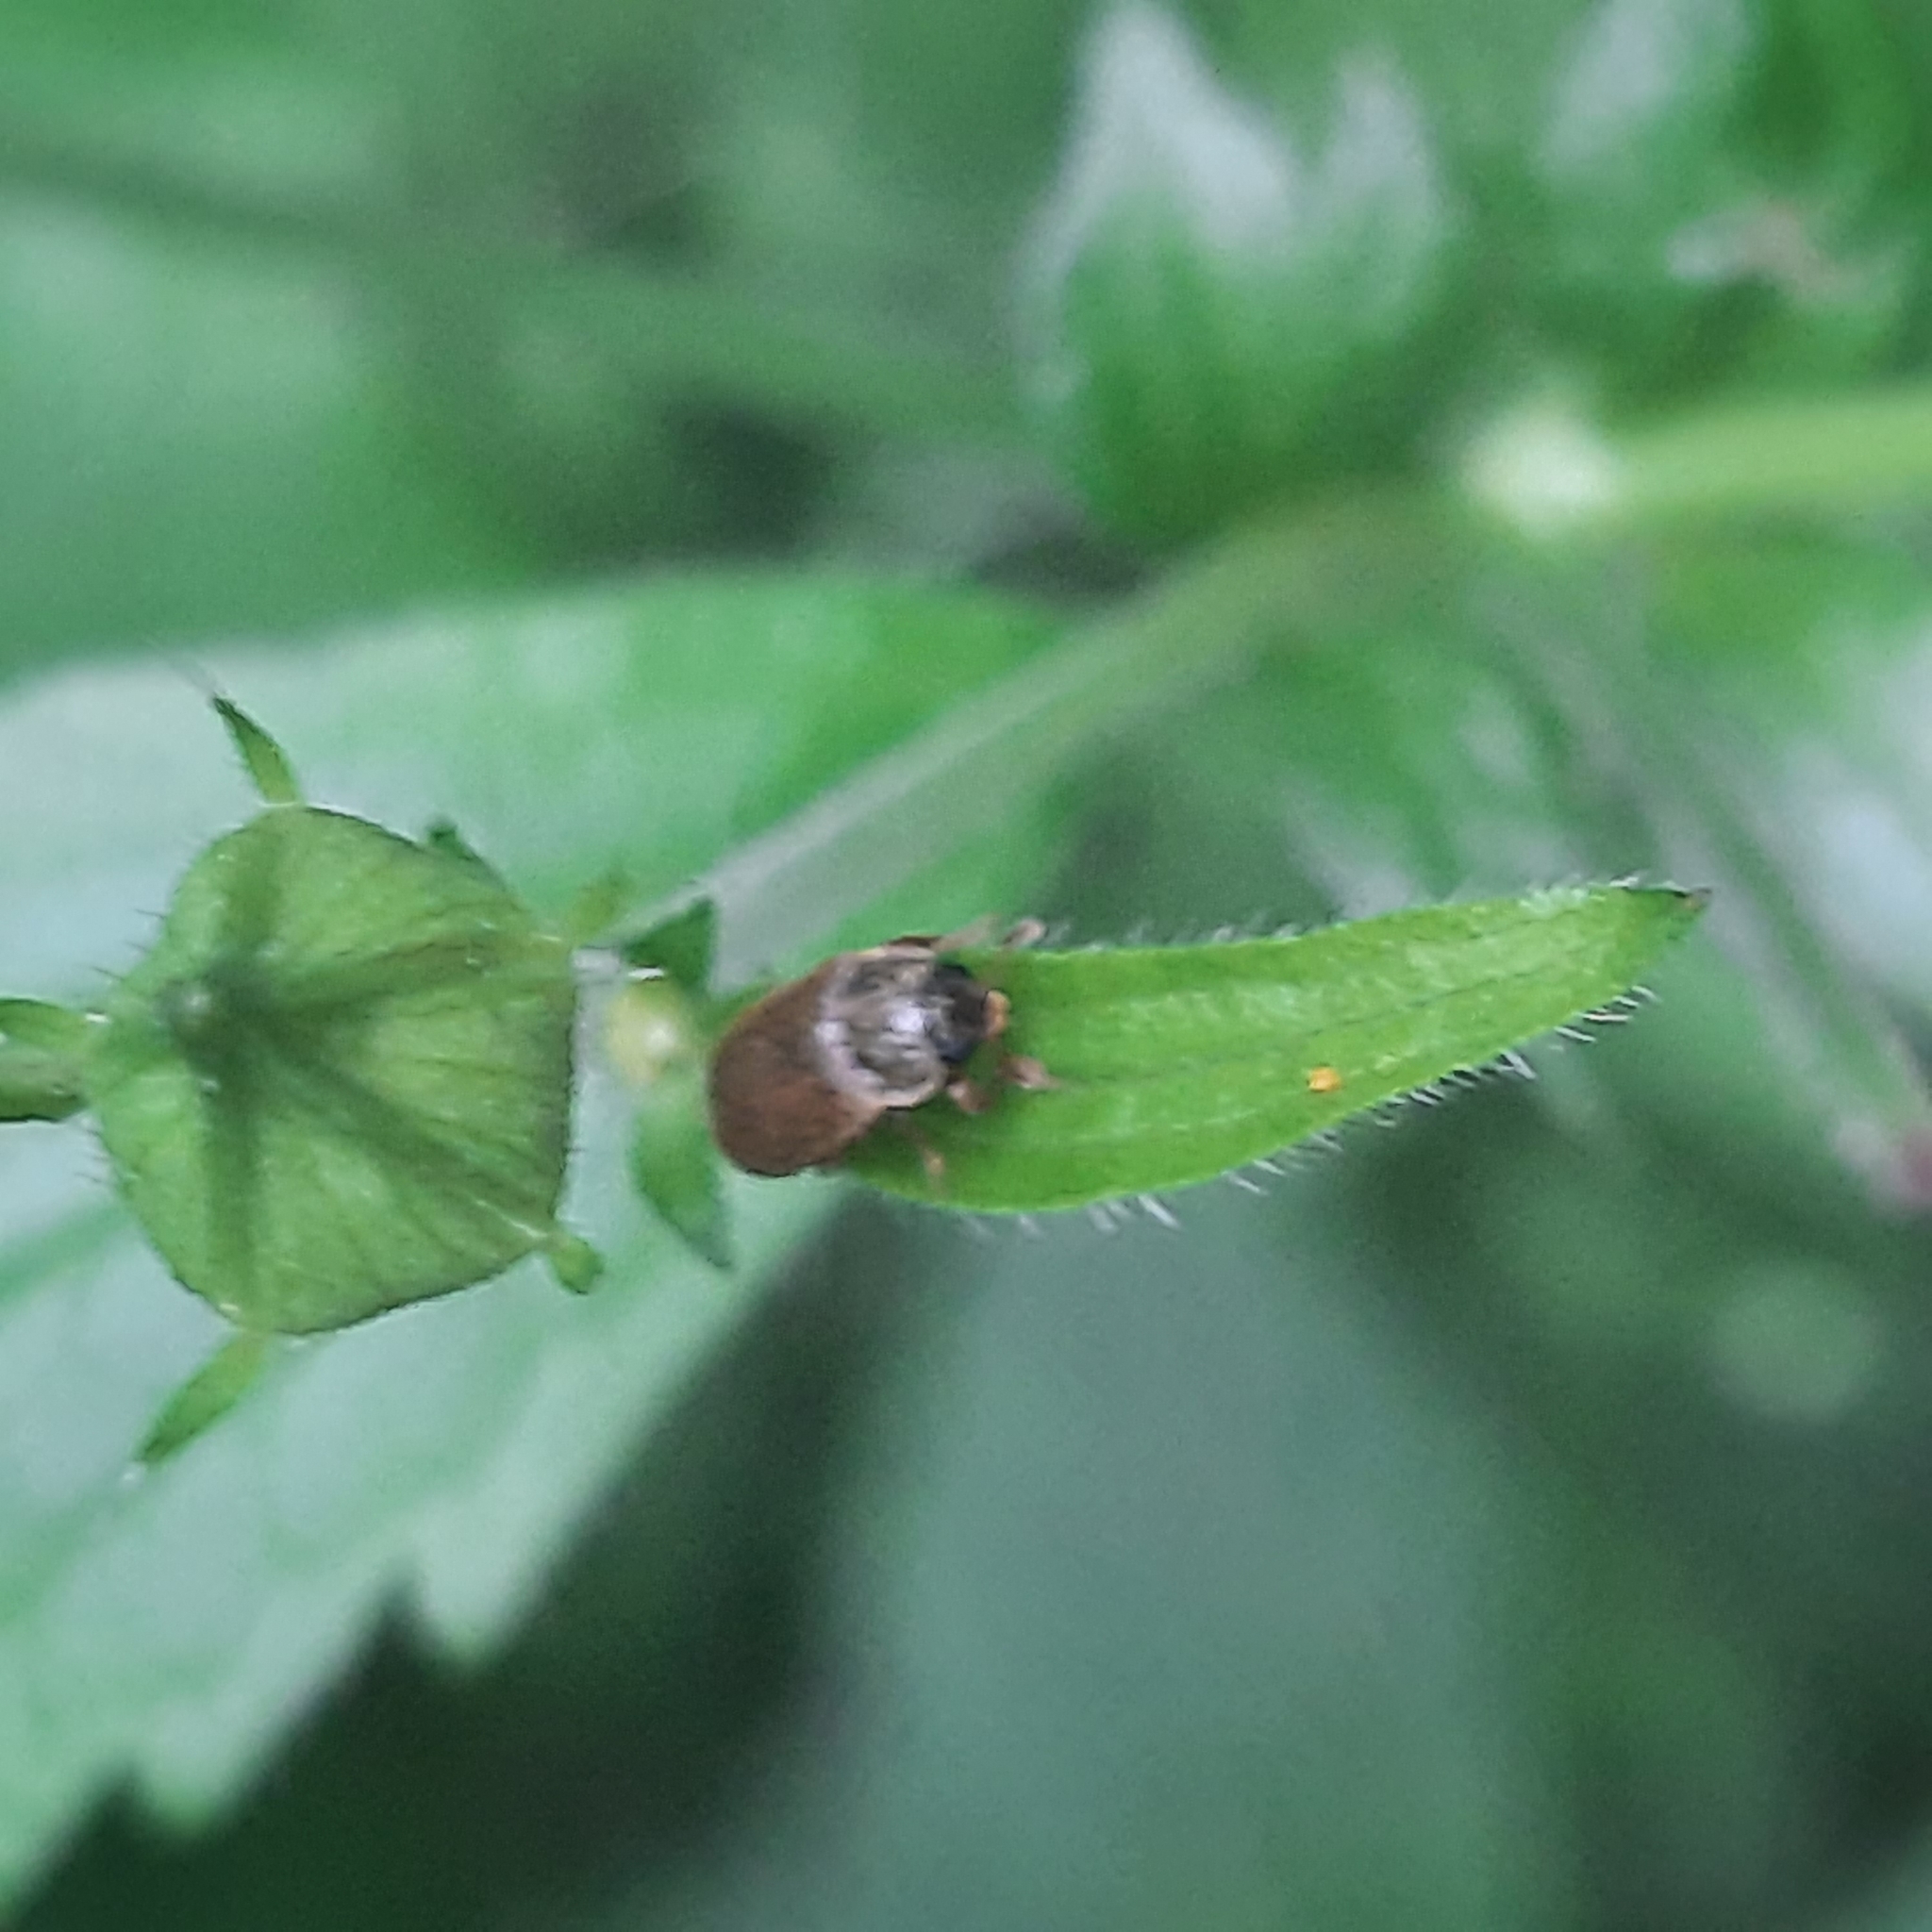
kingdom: Animalia
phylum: Arthropoda
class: Insecta
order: Coleoptera
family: Byturidae
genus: Byturus
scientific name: Byturus
